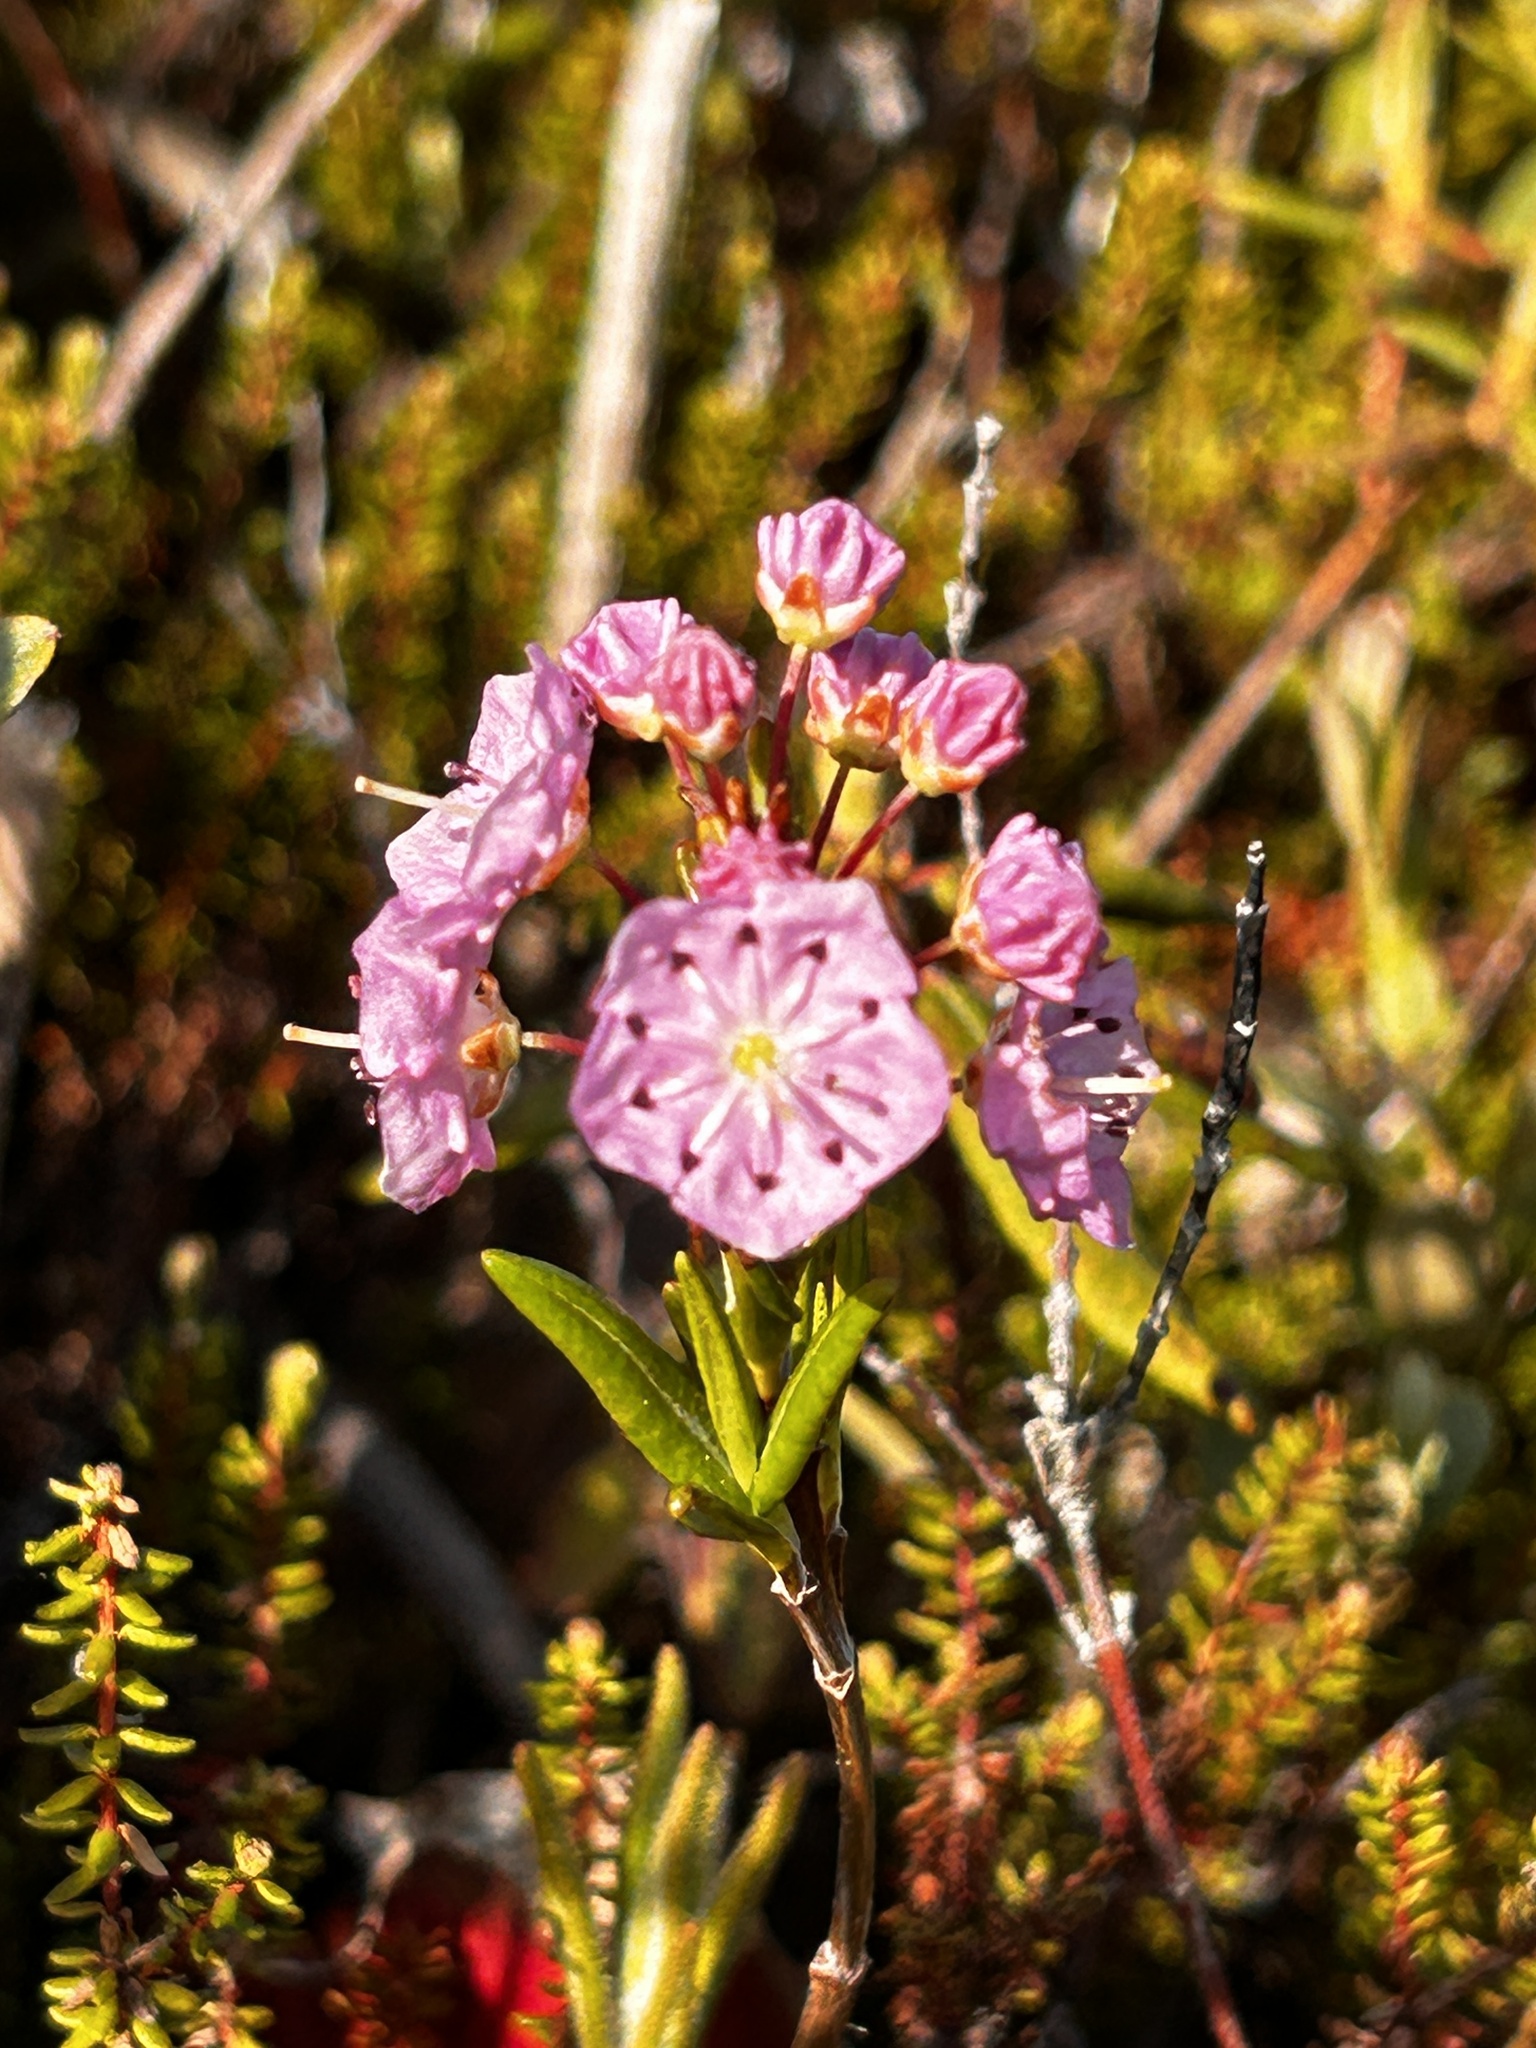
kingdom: Plantae
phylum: Tracheophyta
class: Magnoliopsida
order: Ericales
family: Ericaceae
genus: Kalmia
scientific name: Kalmia polifolia
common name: Bog-laurel
